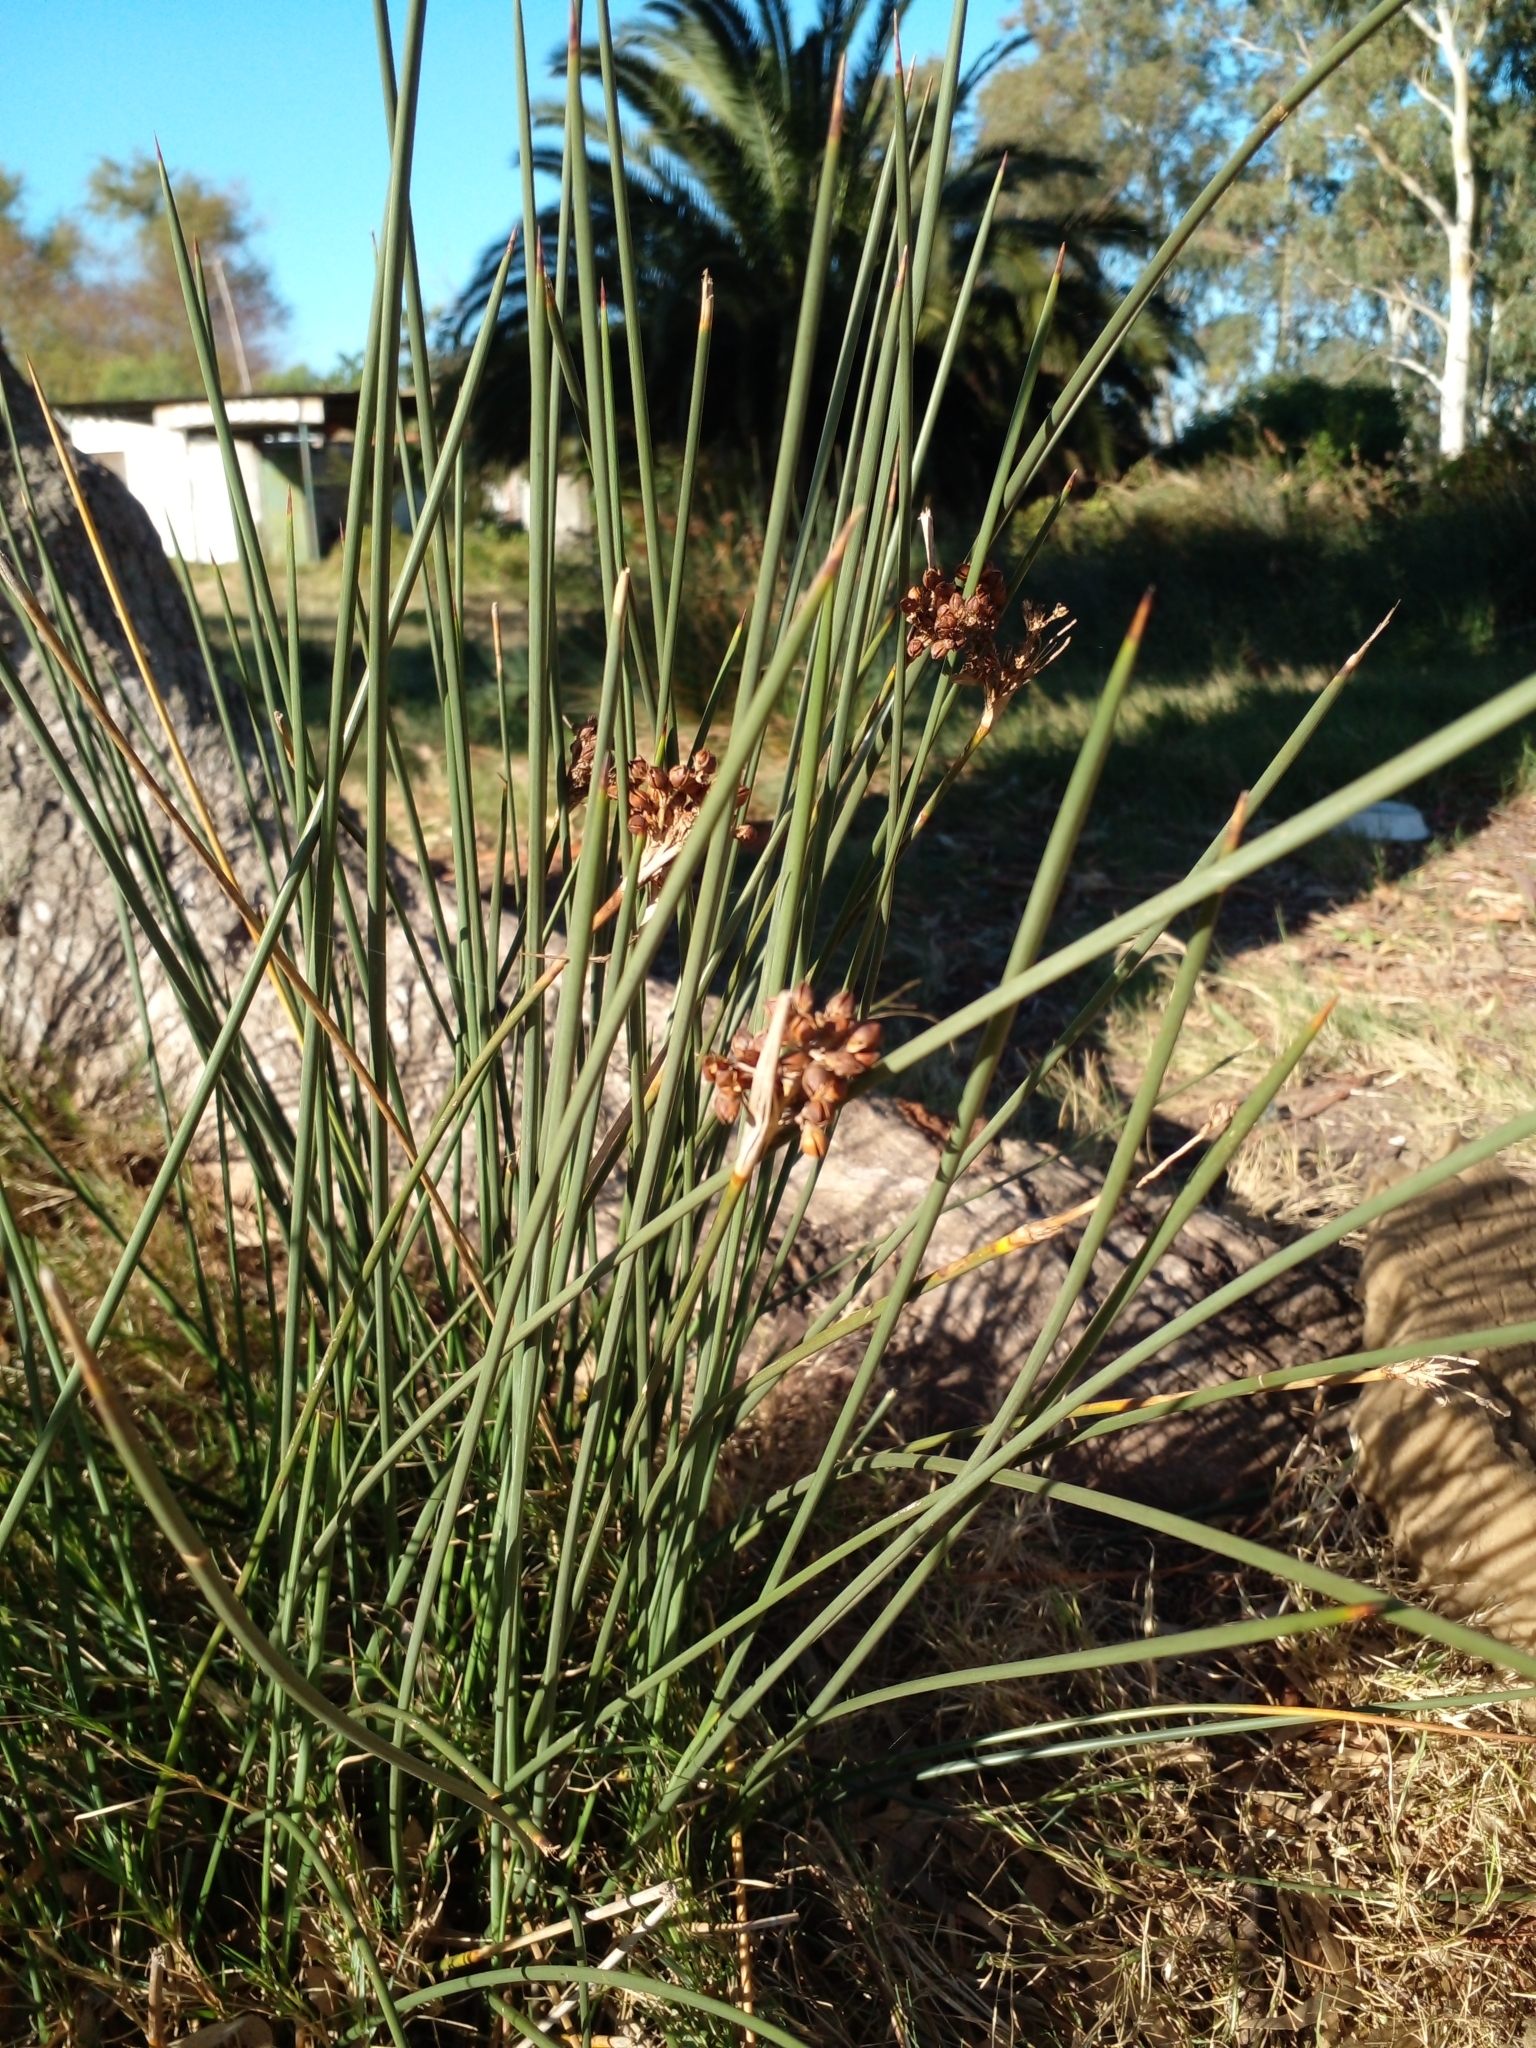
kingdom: Plantae
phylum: Tracheophyta
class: Liliopsida
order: Poales
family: Juncaceae
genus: Juncus
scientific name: Juncus acutus
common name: Sharp rush
